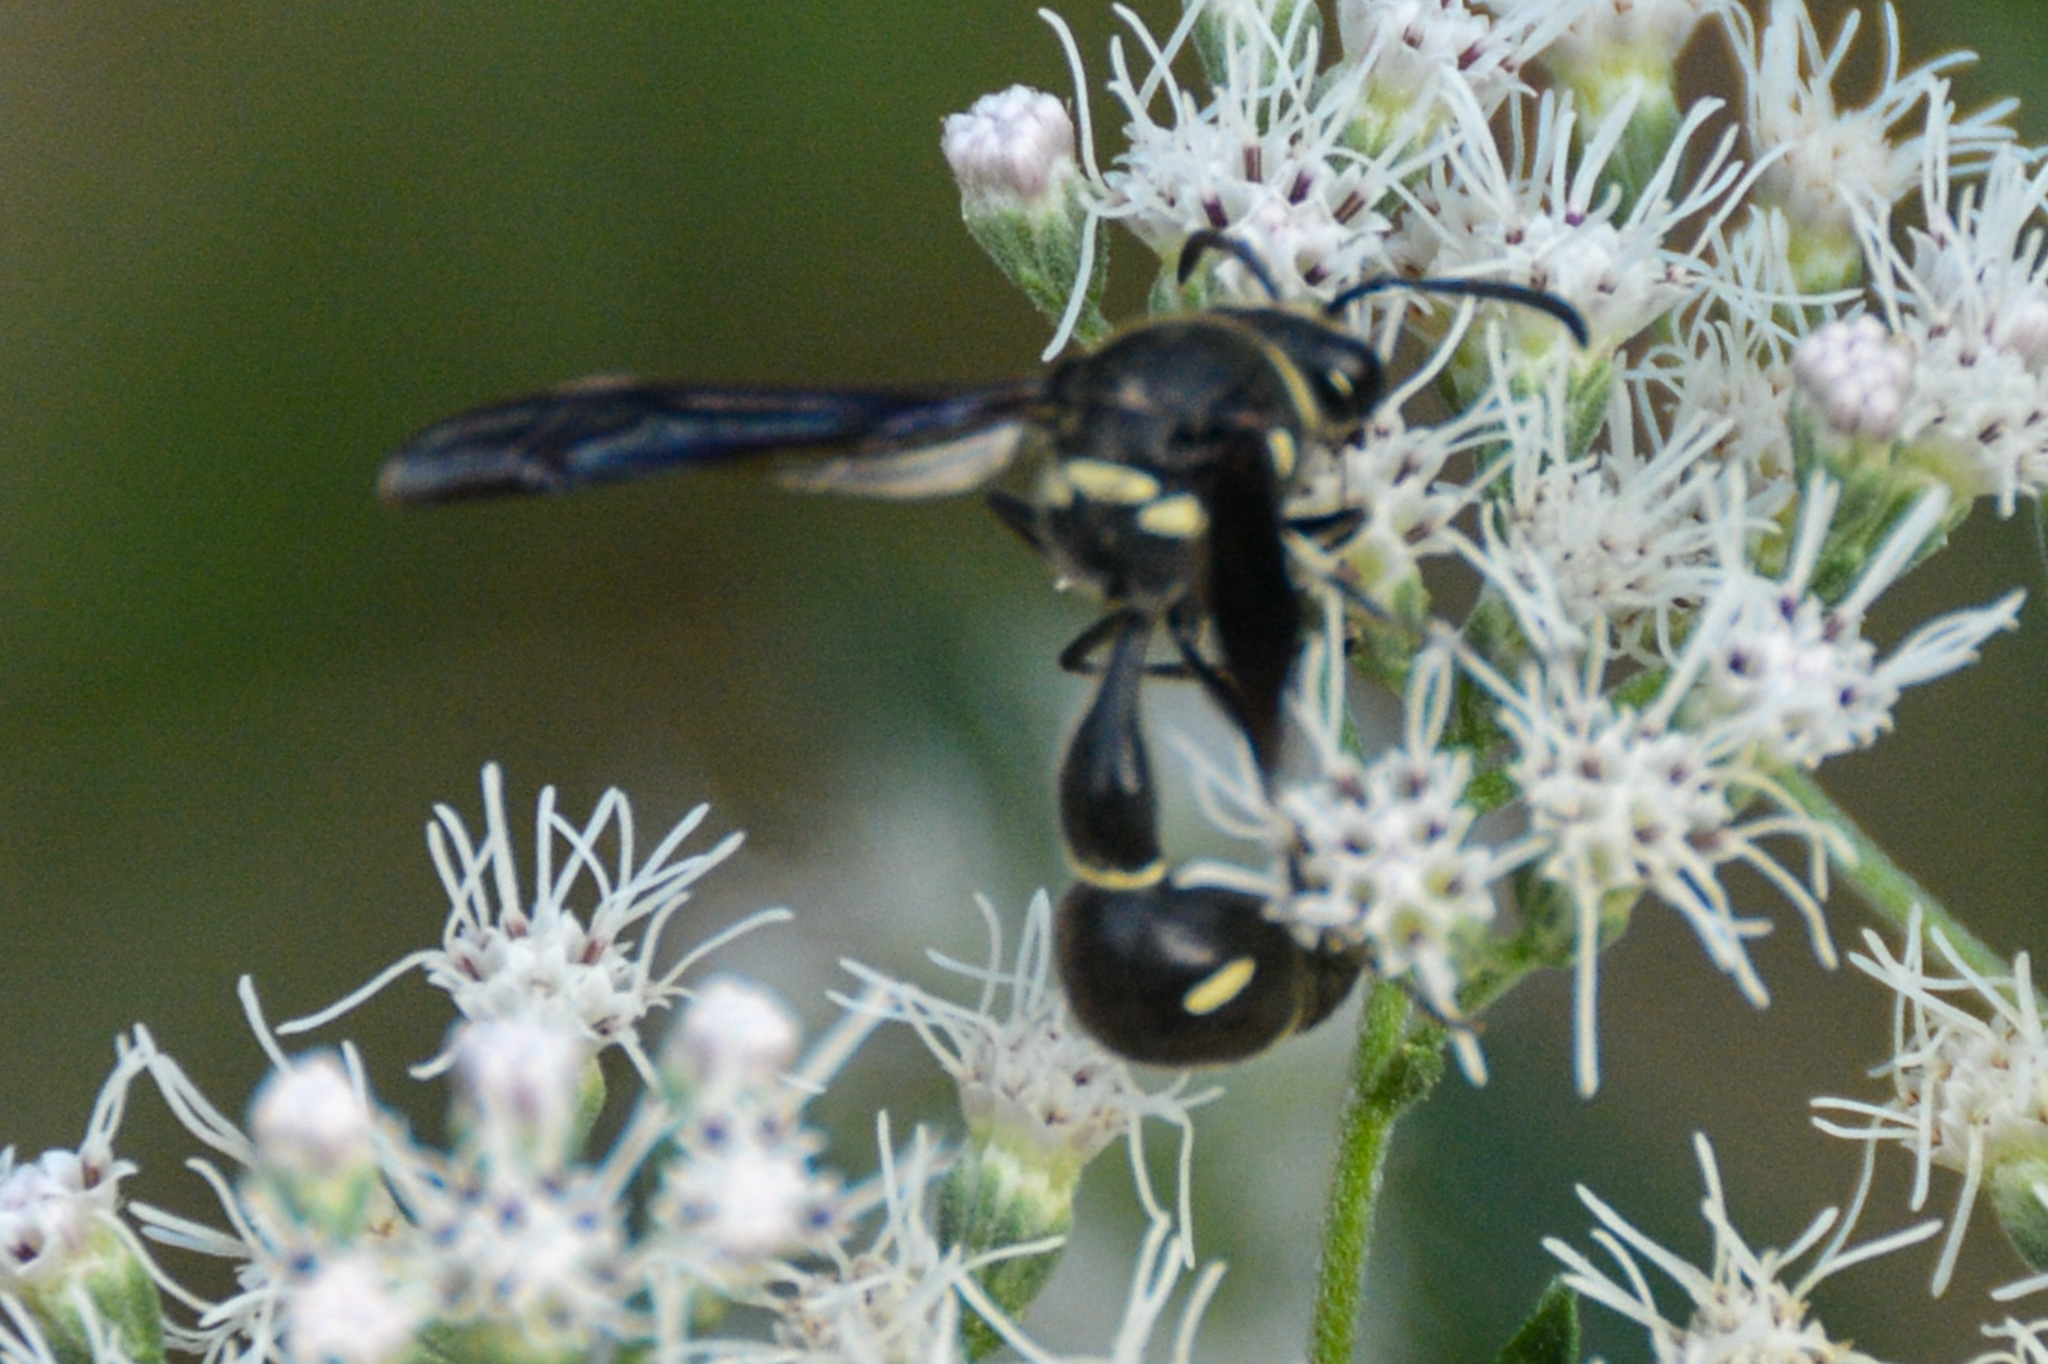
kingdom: Animalia
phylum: Arthropoda
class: Insecta
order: Hymenoptera
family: Vespidae
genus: Eumenes
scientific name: Eumenes fraternus
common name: Fraternal potter wasp
